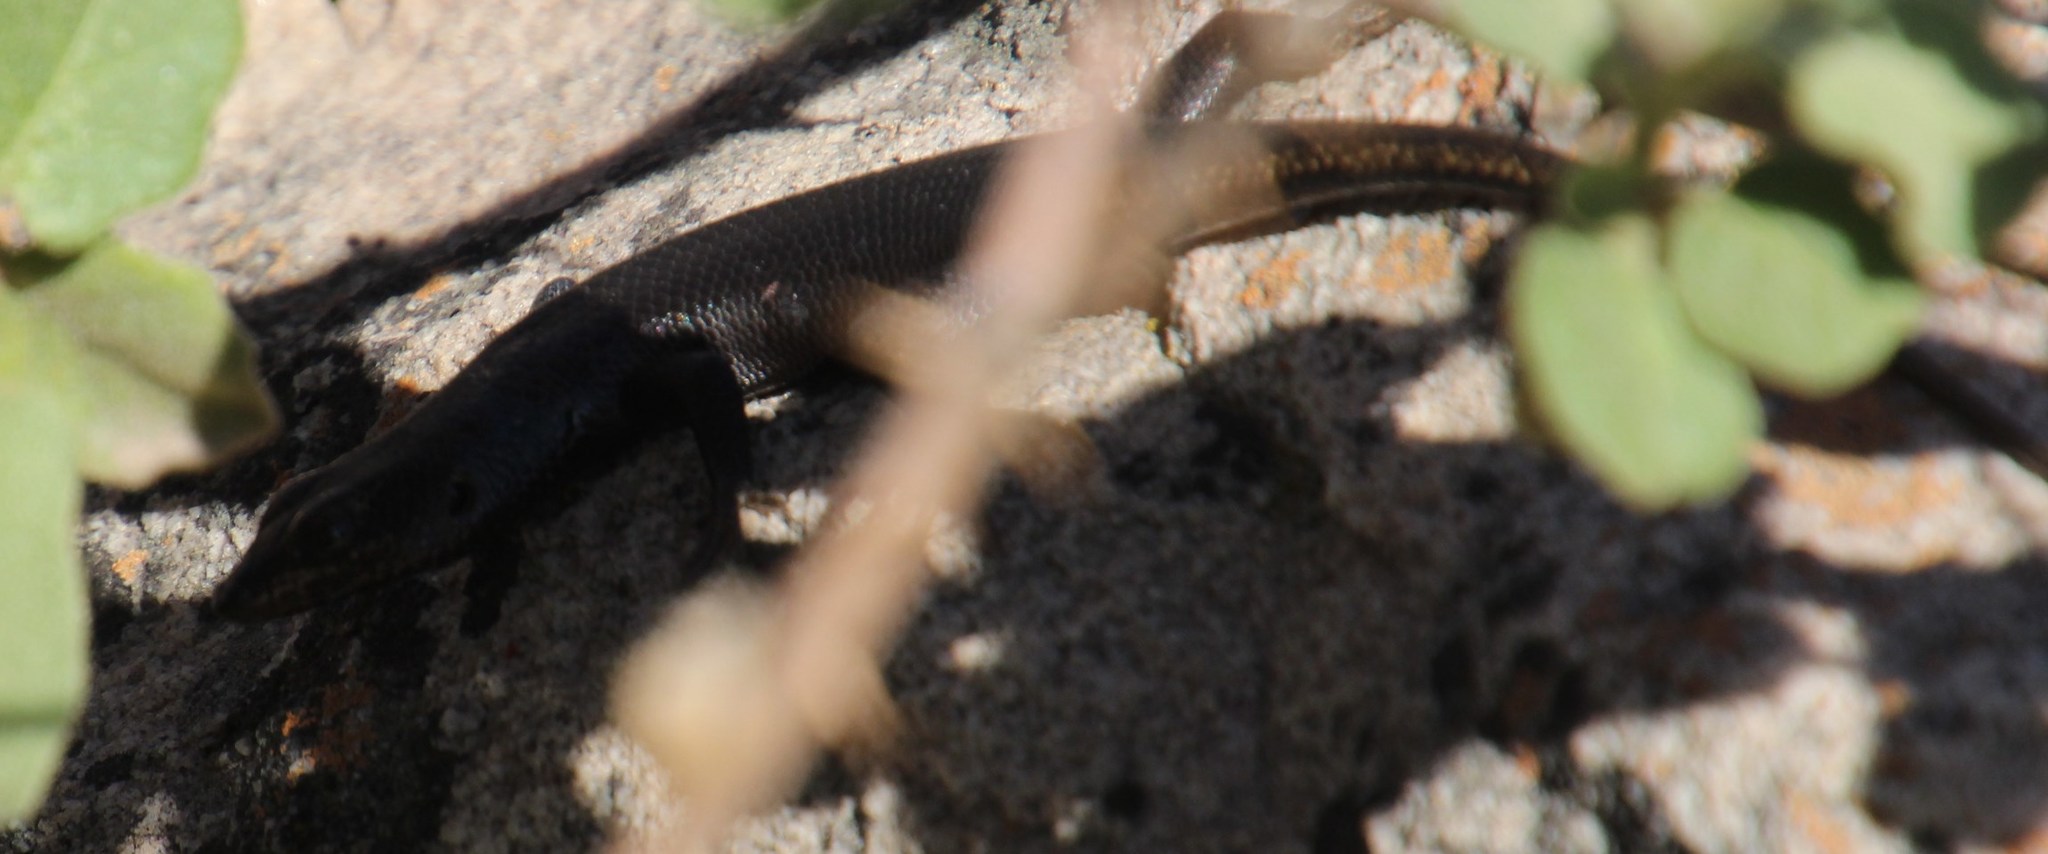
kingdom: Animalia
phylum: Chordata
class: Squamata
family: Scincidae
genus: Trachylepis
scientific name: Trachylepis sulcata
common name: Western rock skink
